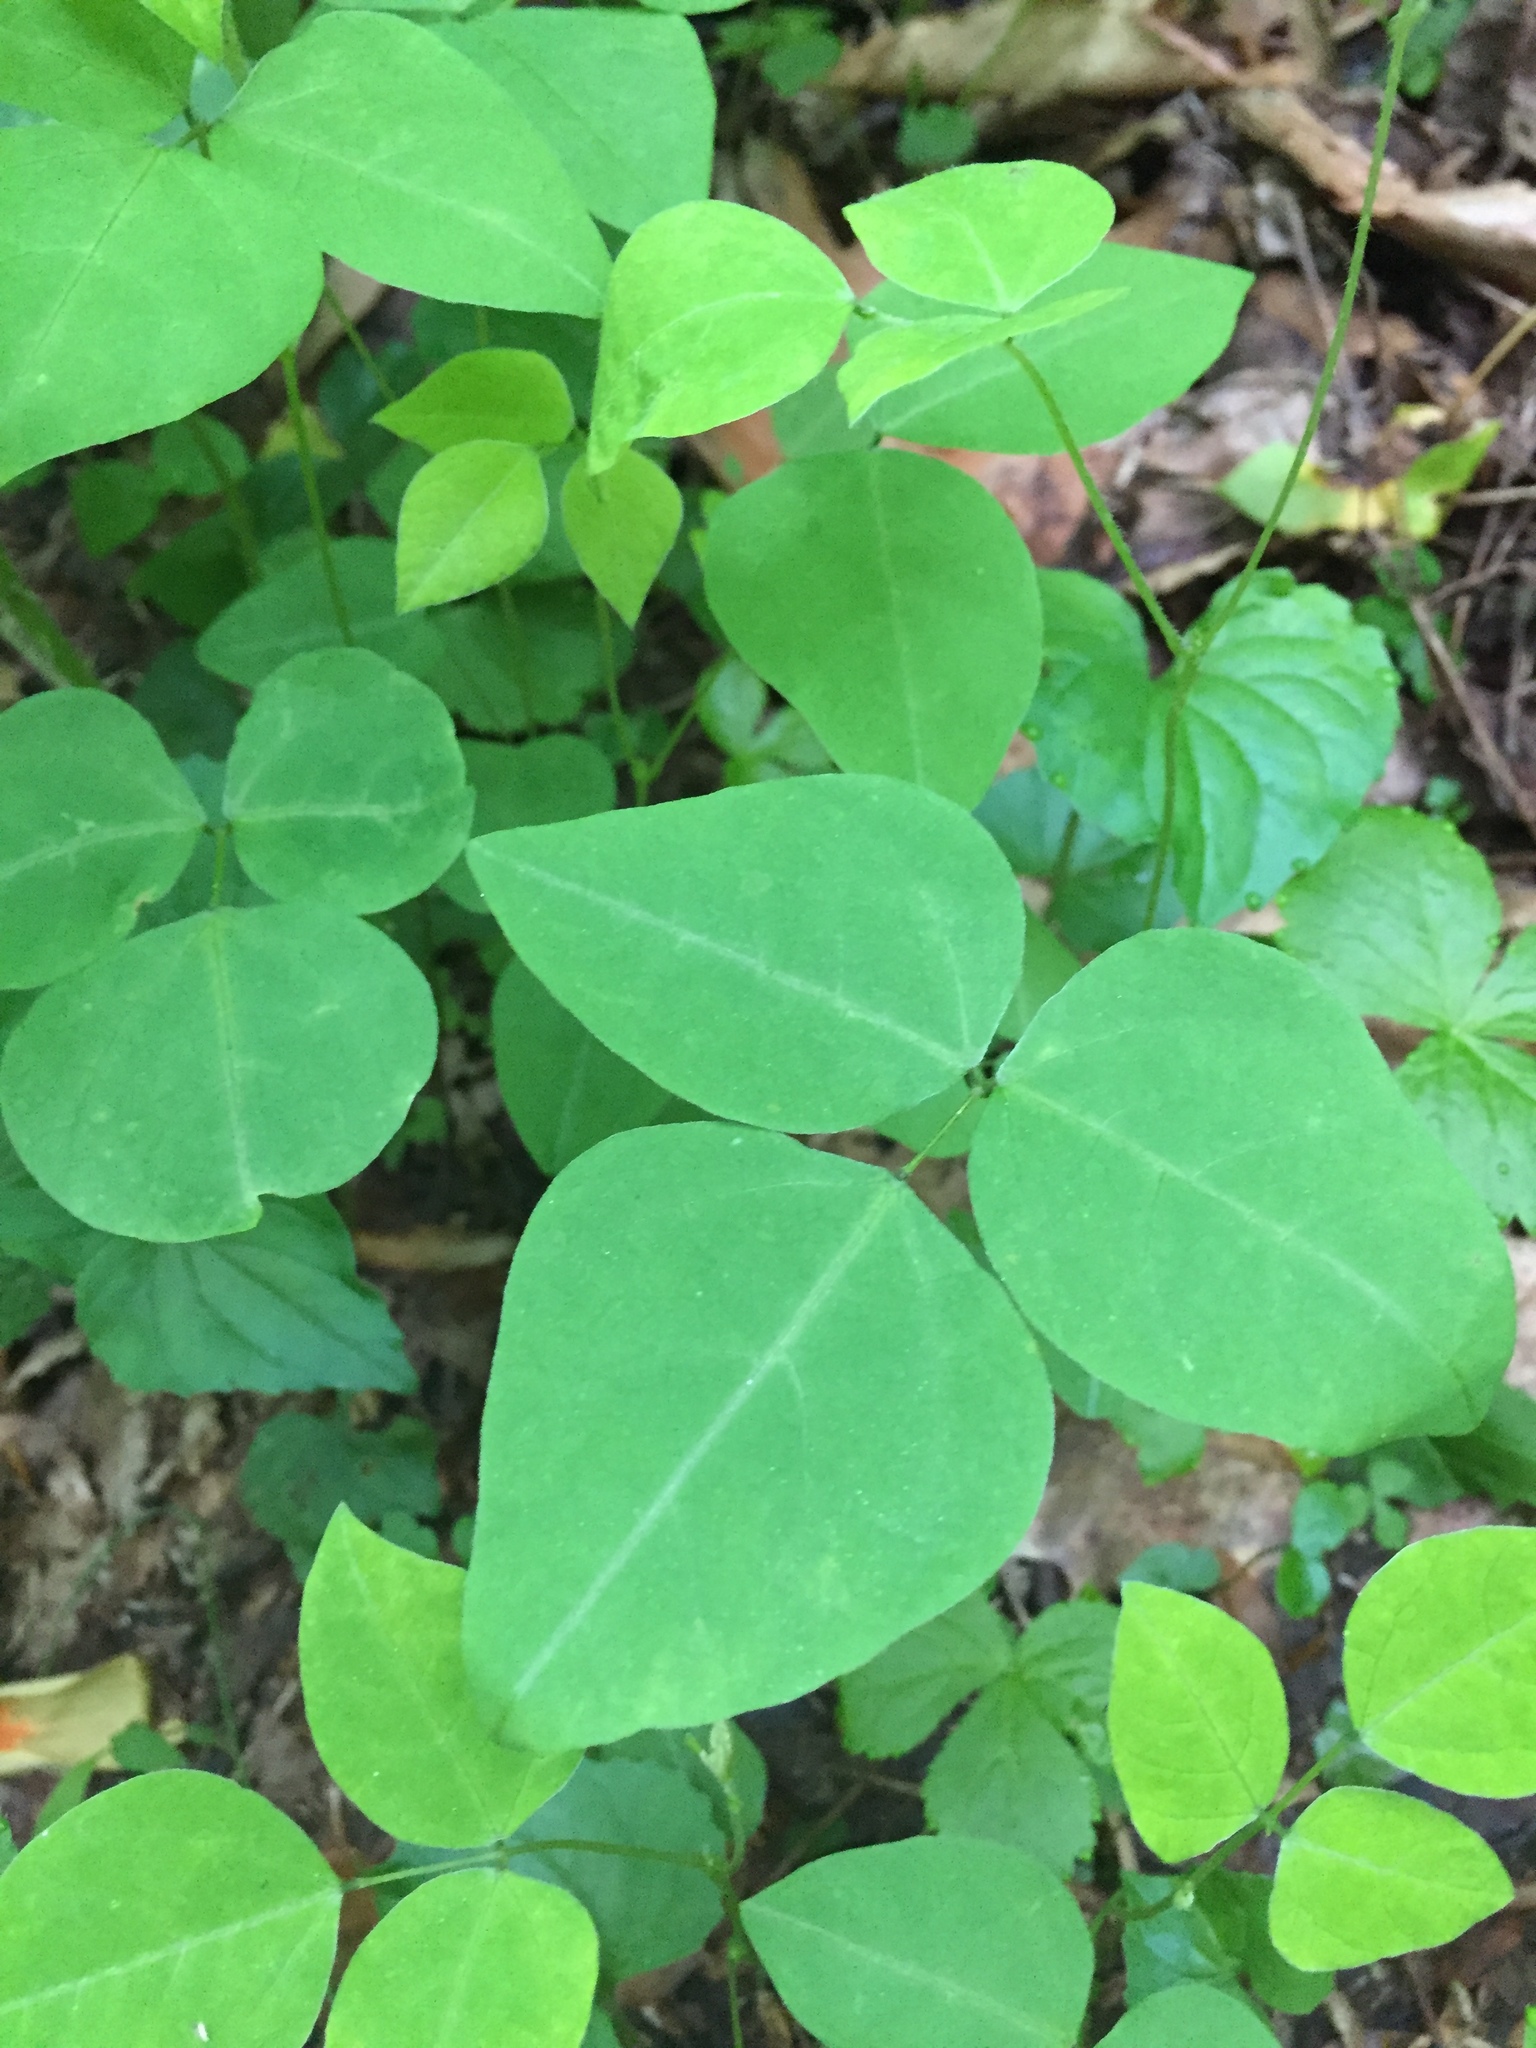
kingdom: Plantae
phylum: Tracheophyta
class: Magnoliopsida
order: Fabales
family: Fabaceae
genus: Amphicarpaea
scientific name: Amphicarpaea bracteata
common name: American hog peanut
